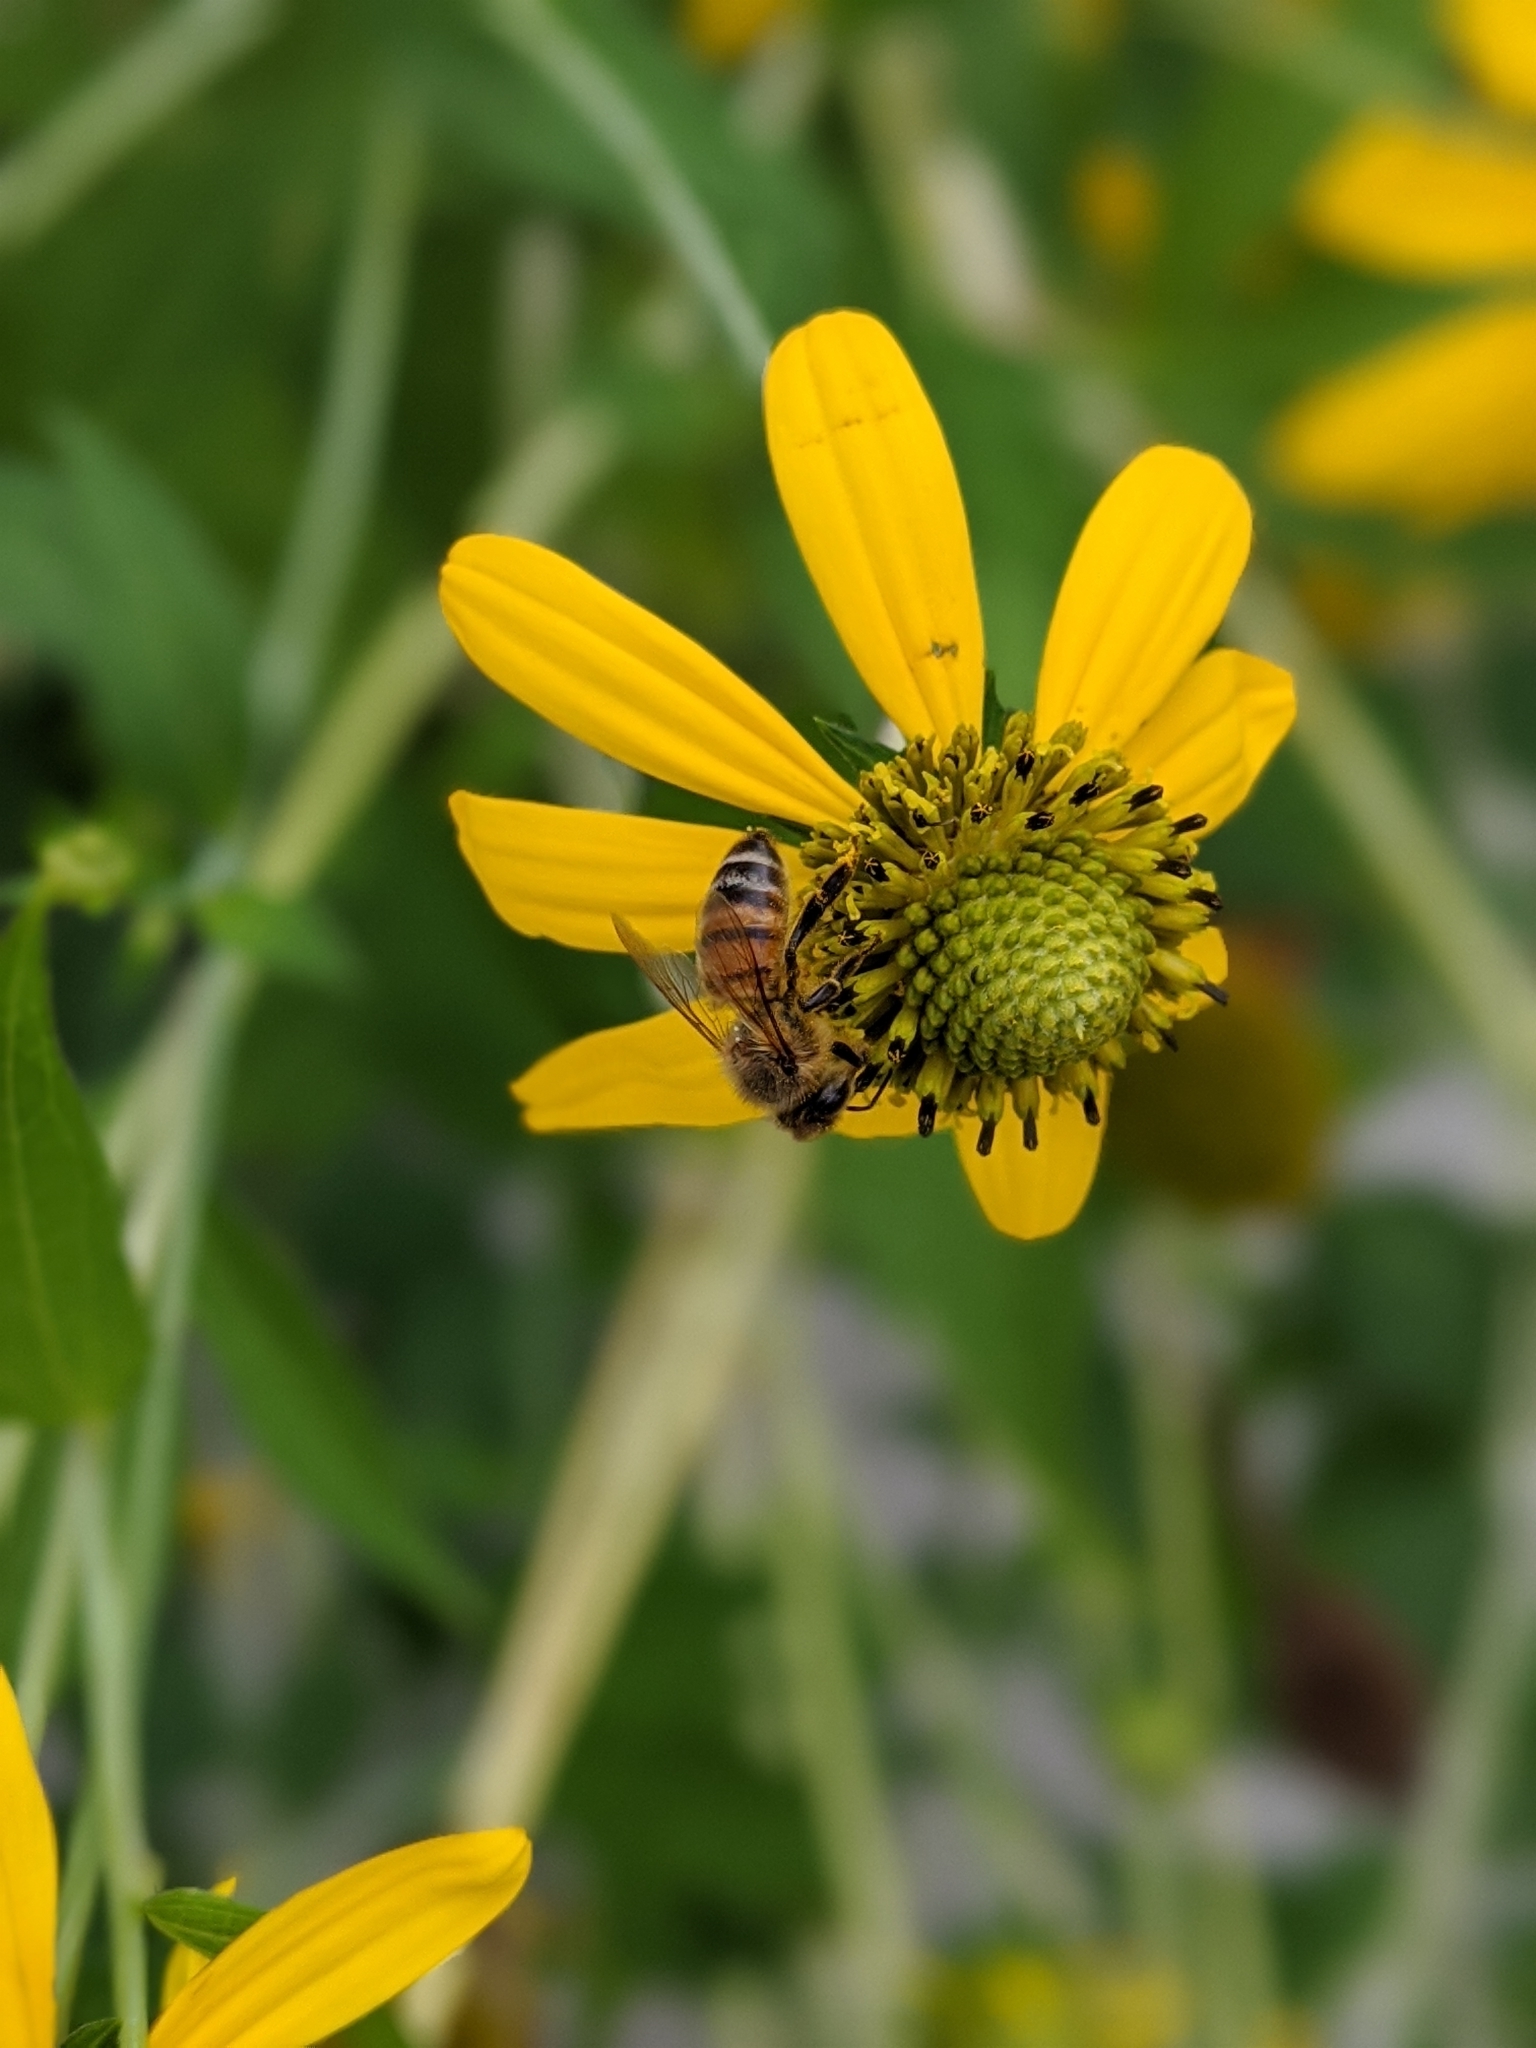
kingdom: Animalia
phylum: Arthropoda
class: Insecta
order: Hymenoptera
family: Apidae
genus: Apis
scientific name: Apis mellifera
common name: Honey bee
